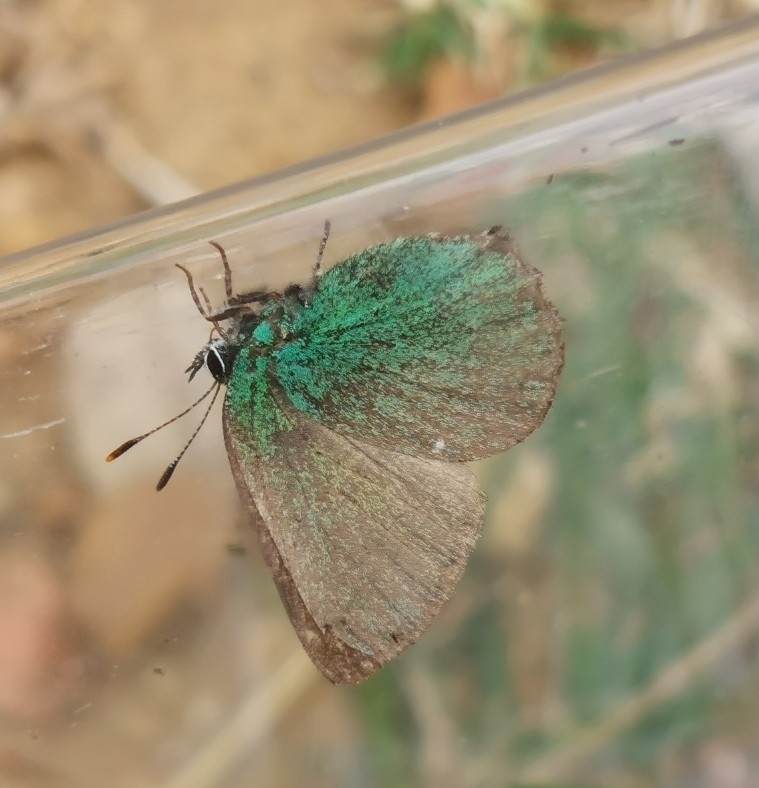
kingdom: Animalia
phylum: Arthropoda
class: Insecta
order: Lepidoptera
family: Lycaenidae
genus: Callophrys
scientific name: Callophrys rubi
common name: Green hairstreak
